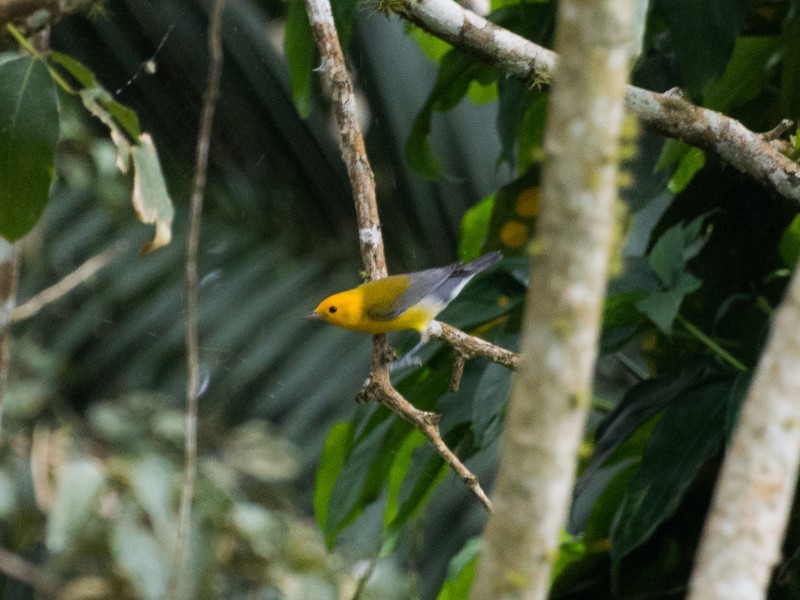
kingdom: Animalia
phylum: Chordata
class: Aves
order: Passeriformes
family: Parulidae
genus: Protonotaria
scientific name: Protonotaria citrea
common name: Prothonotary warbler
